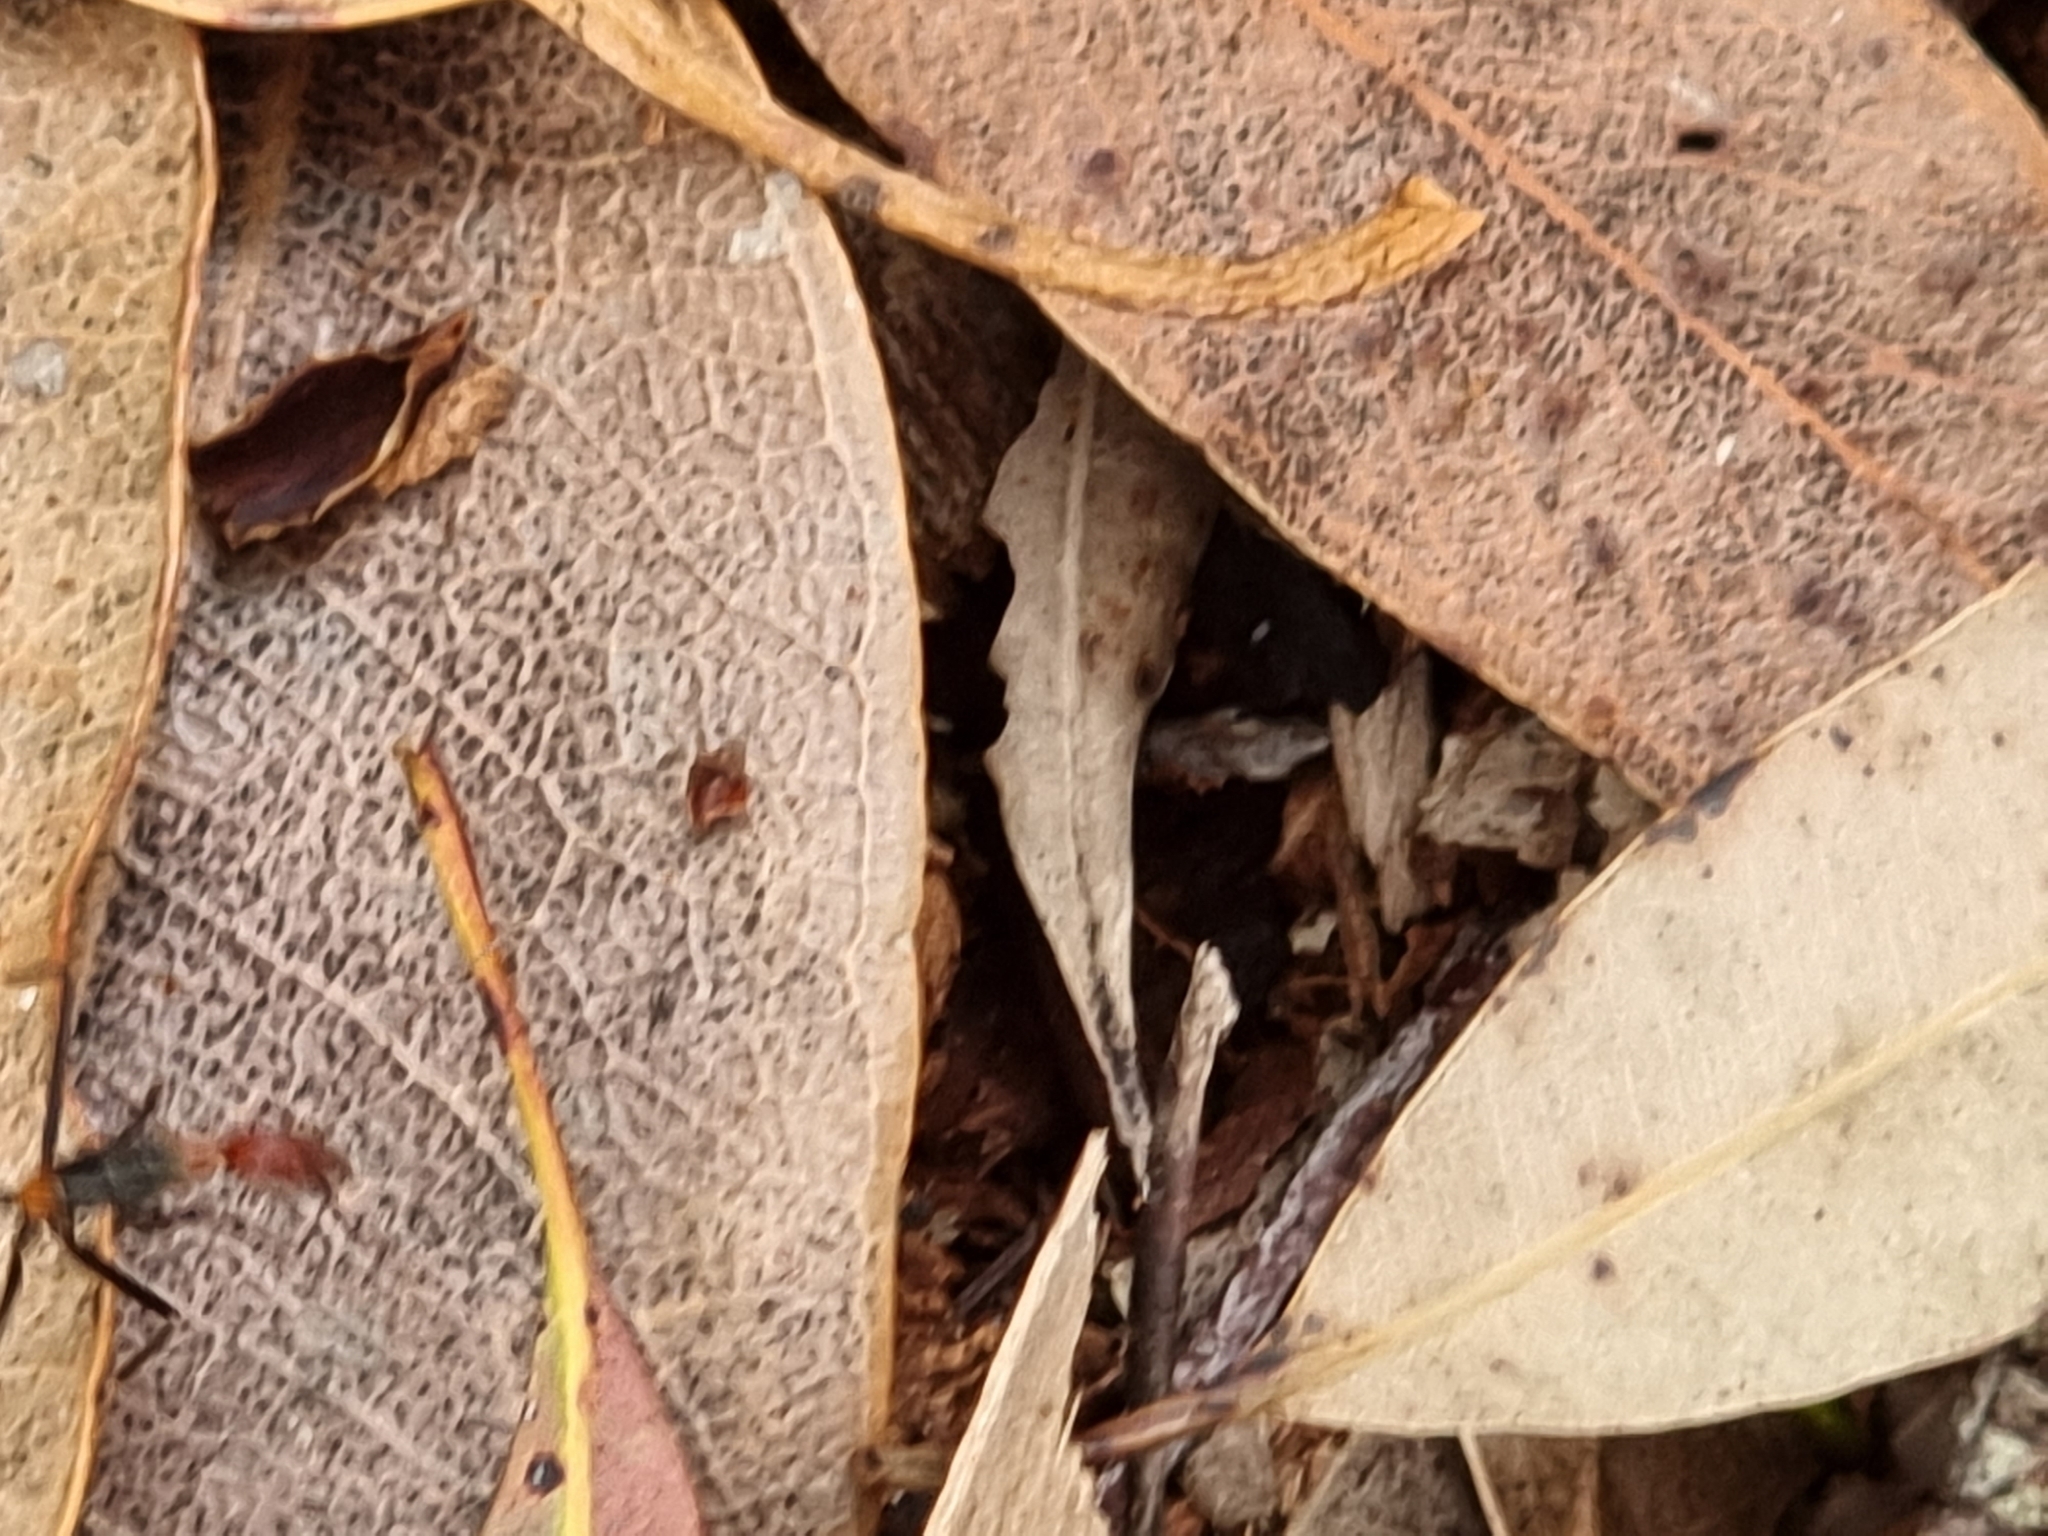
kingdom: Animalia
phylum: Arthropoda
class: Insecta
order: Hymenoptera
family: Formicidae
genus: Leptomyrmex
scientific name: Leptomyrmex rufithorax
